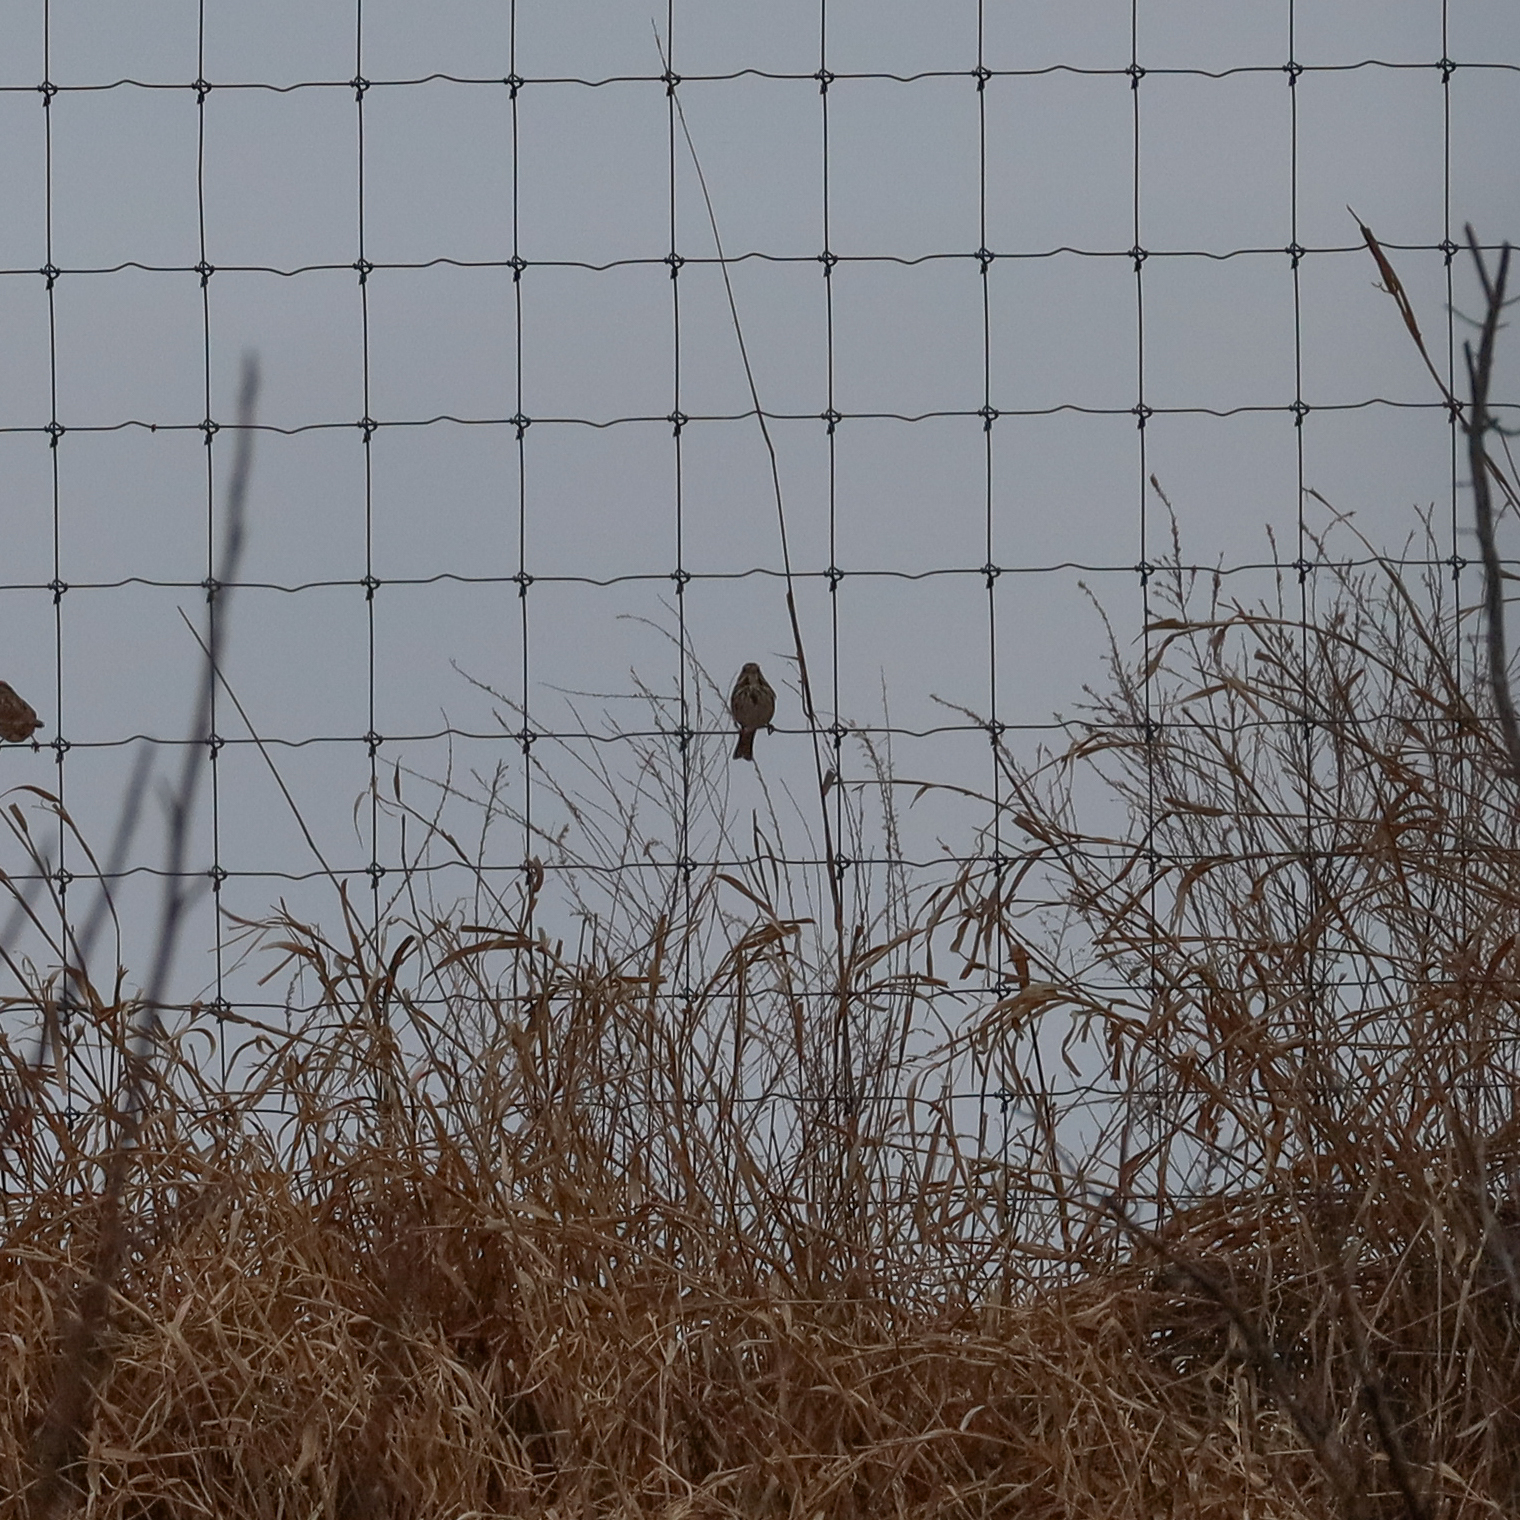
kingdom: Animalia
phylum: Chordata
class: Aves
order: Passeriformes
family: Passerellidae
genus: Melospiza
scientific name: Melospiza melodia
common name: Song sparrow
